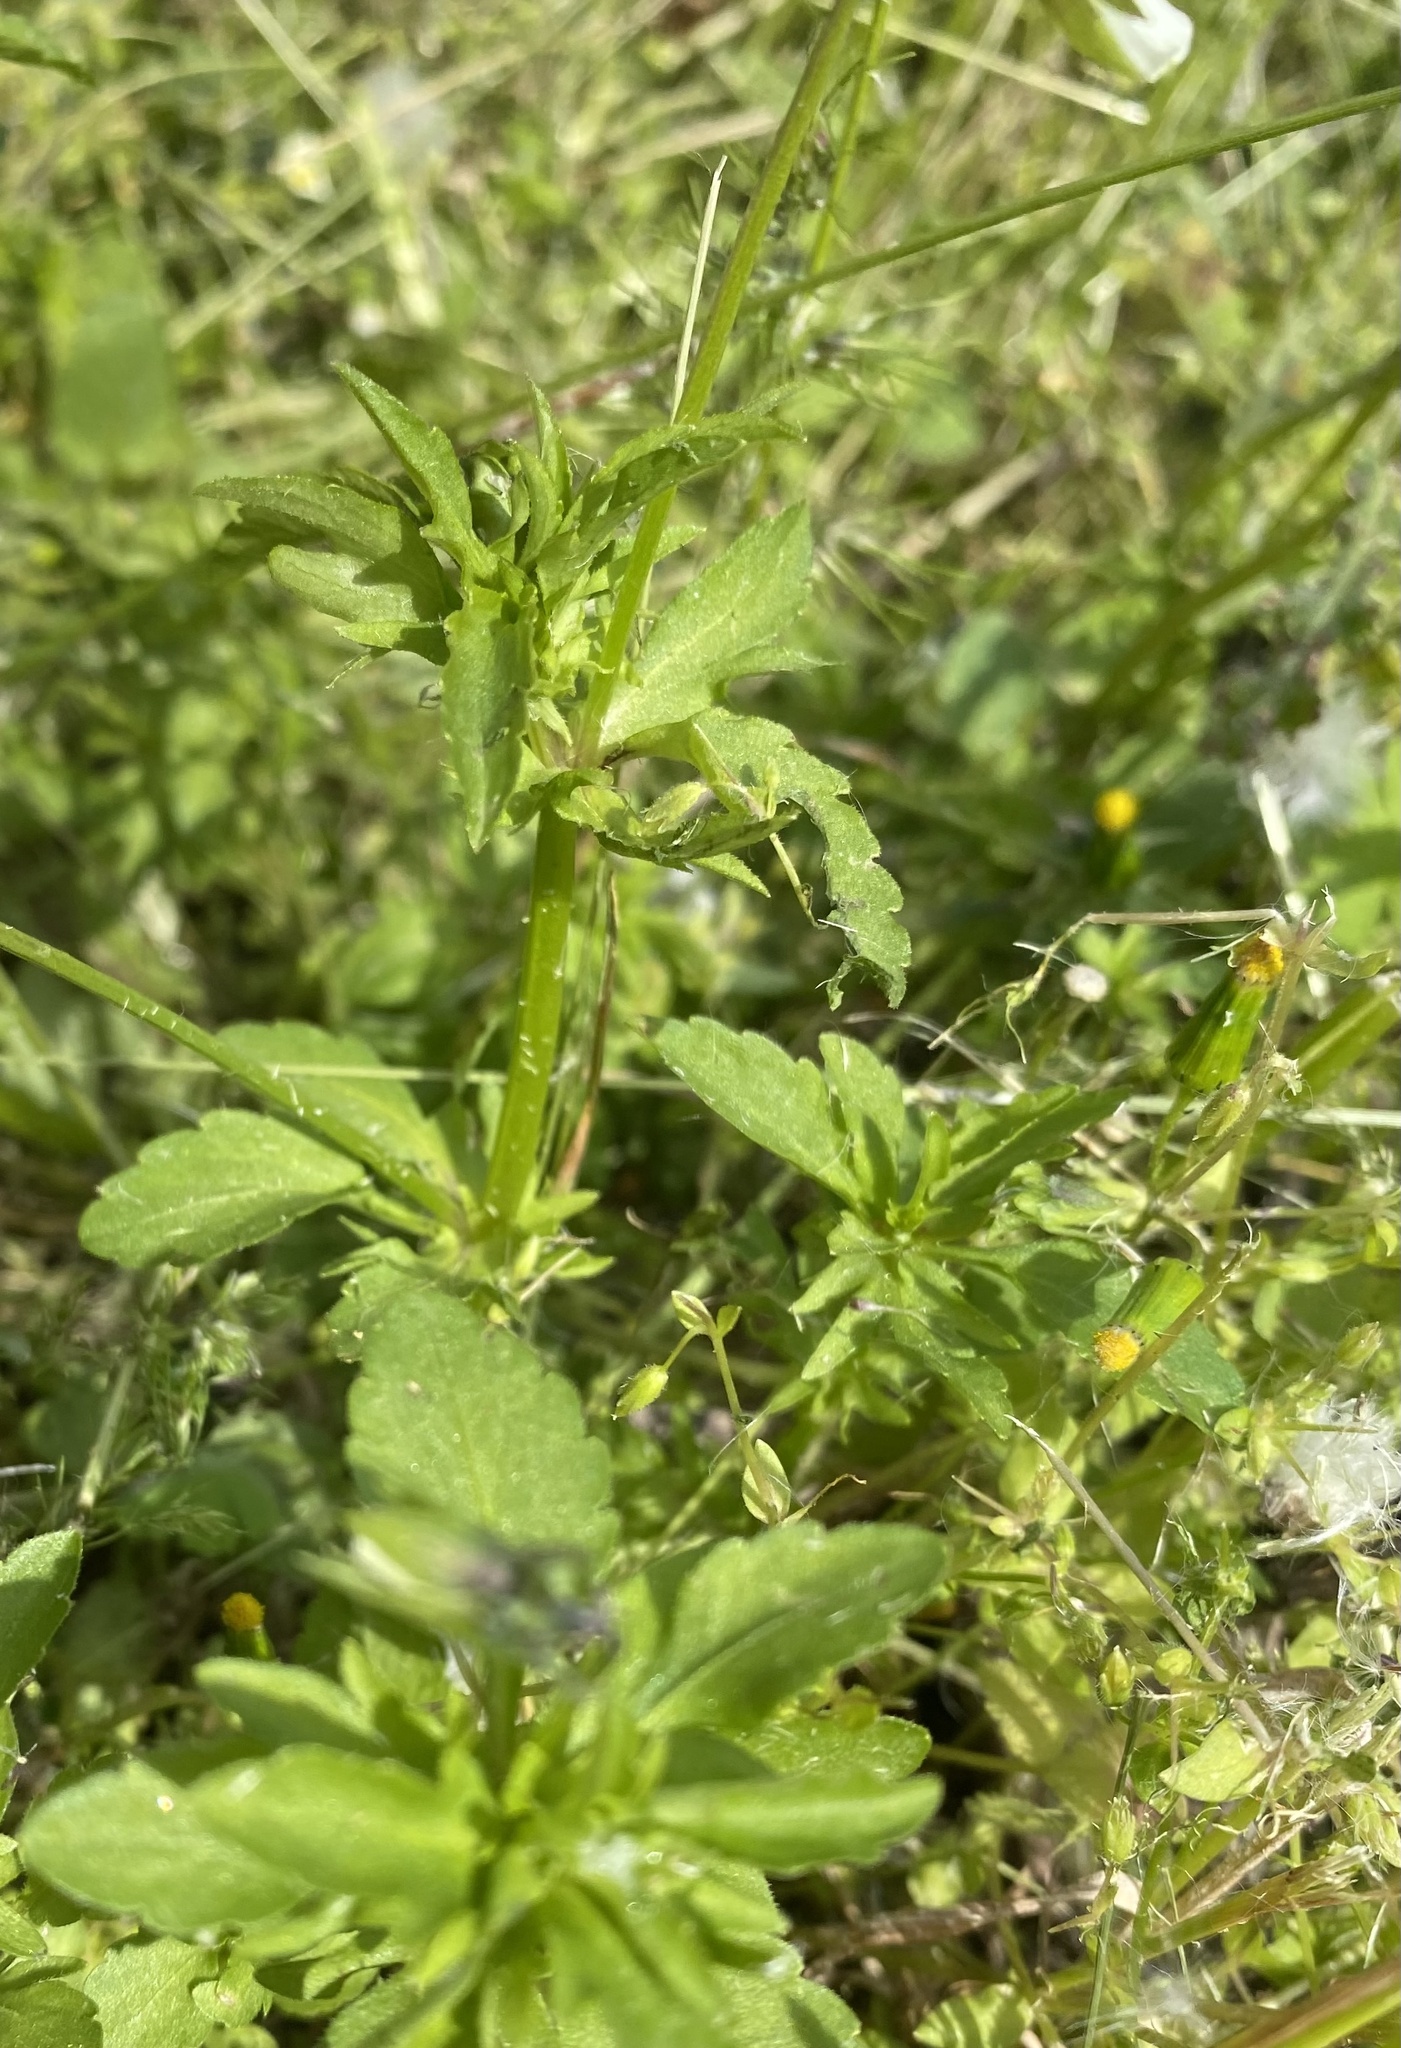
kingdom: Plantae
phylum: Tracheophyta
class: Magnoliopsida
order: Malpighiales
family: Violaceae
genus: Viola
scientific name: Viola arvensis
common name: Field pansy
